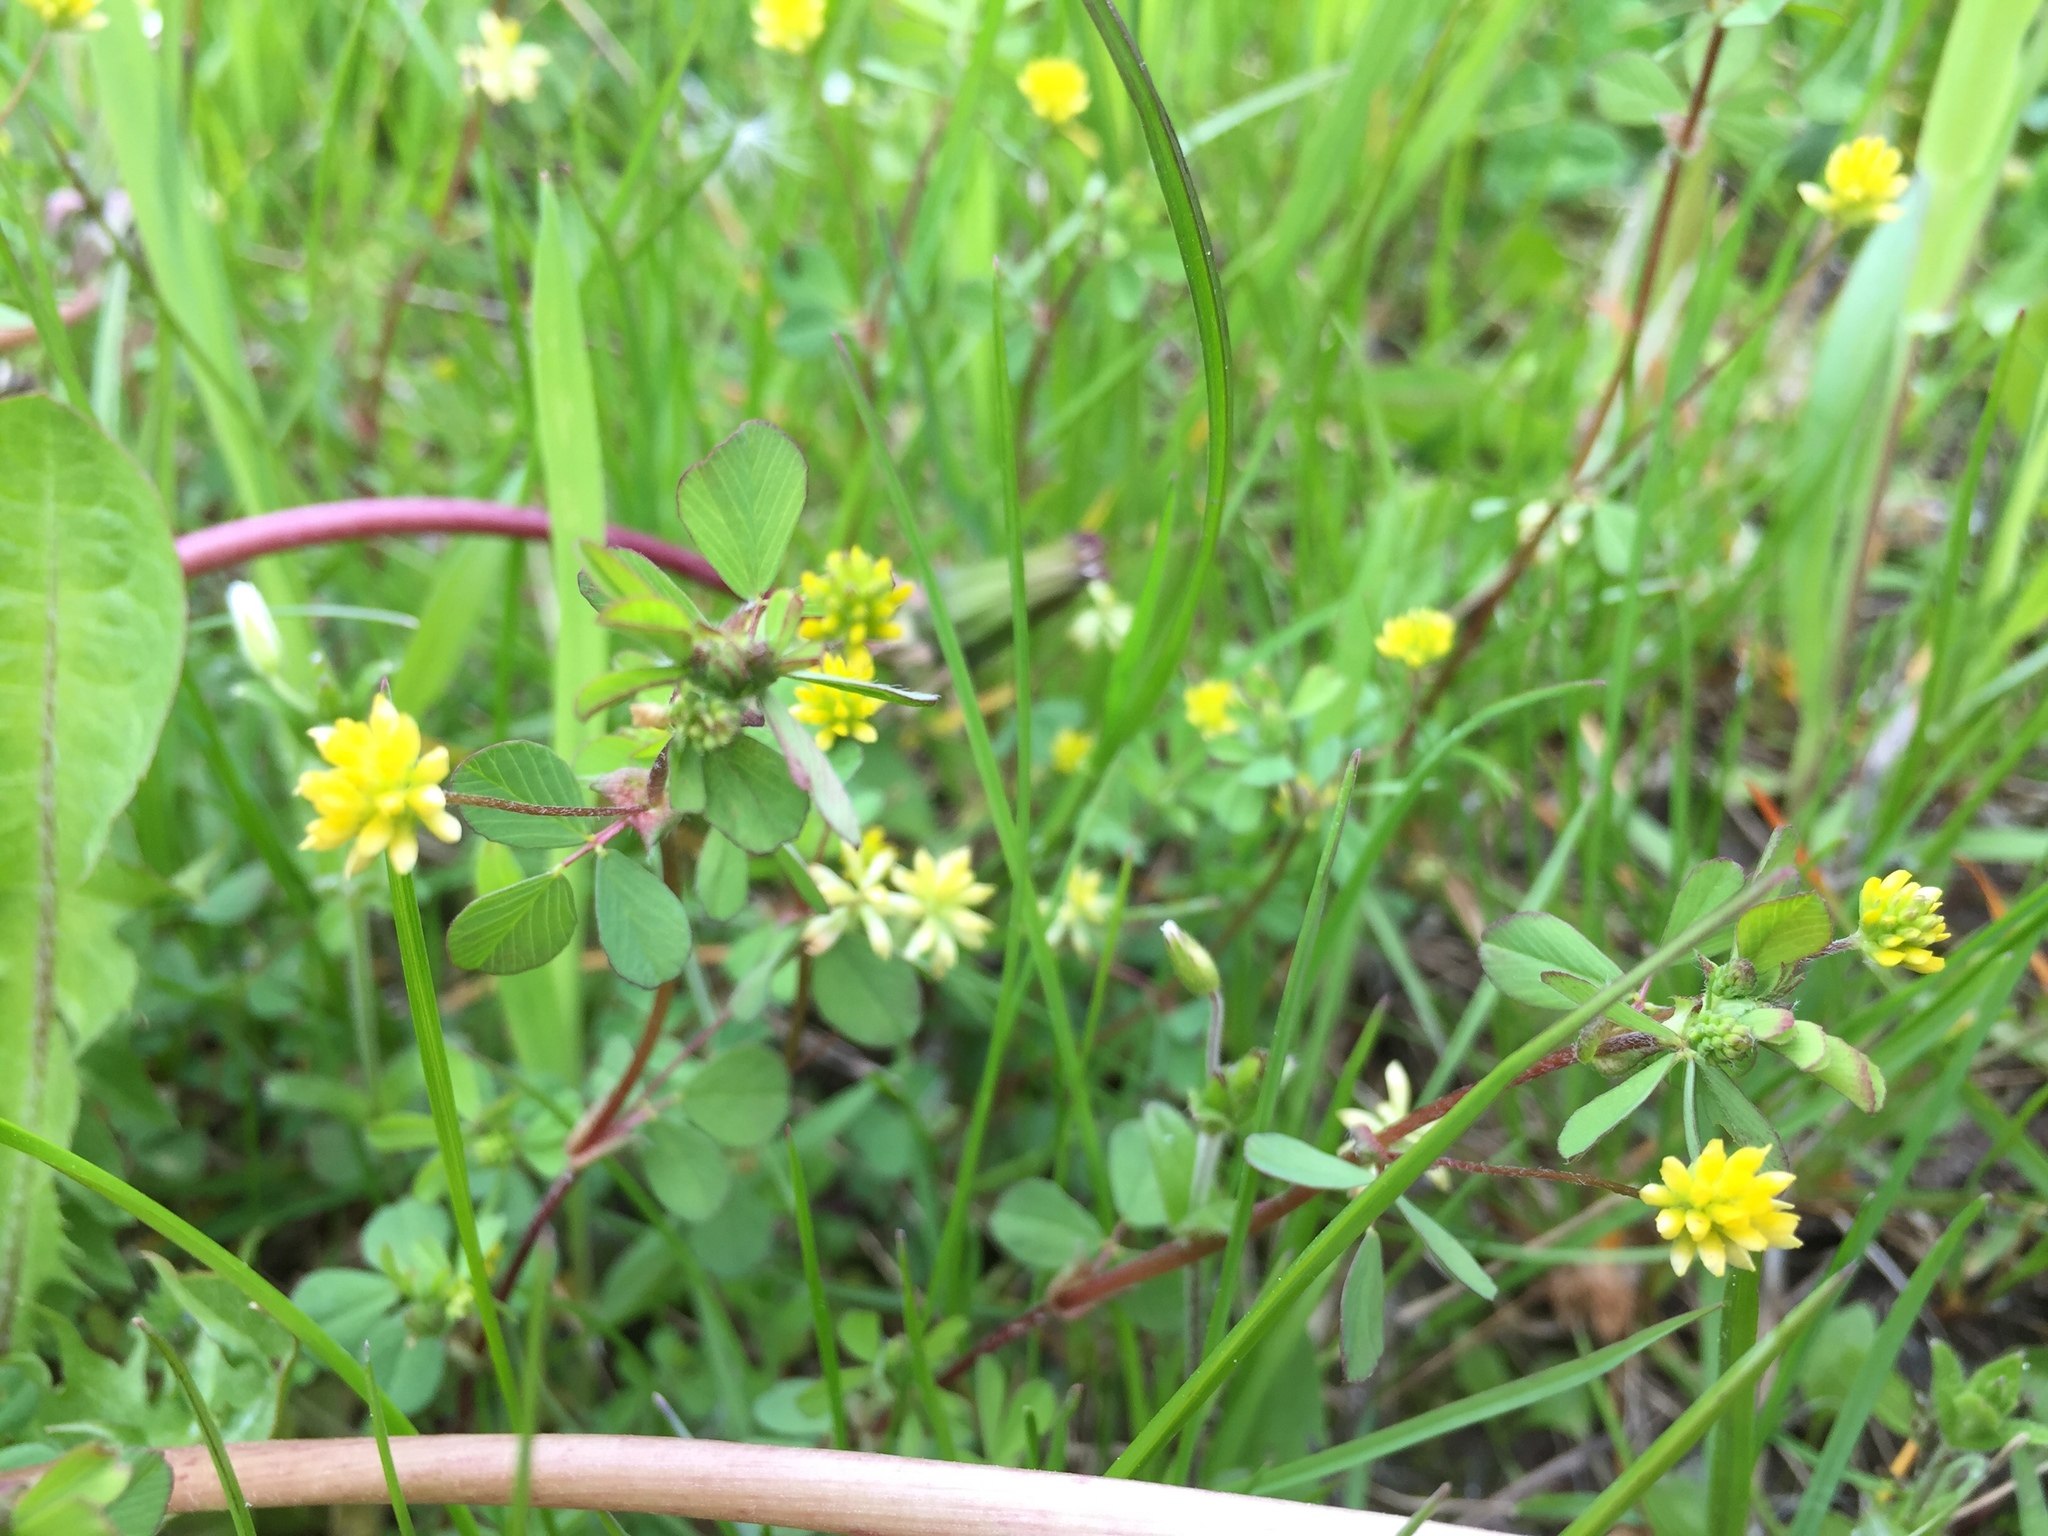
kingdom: Plantae
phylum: Tracheophyta
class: Magnoliopsida
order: Fabales
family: Fabaceae
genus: Trifolium
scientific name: Trifolium dubium
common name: Suckling clover
